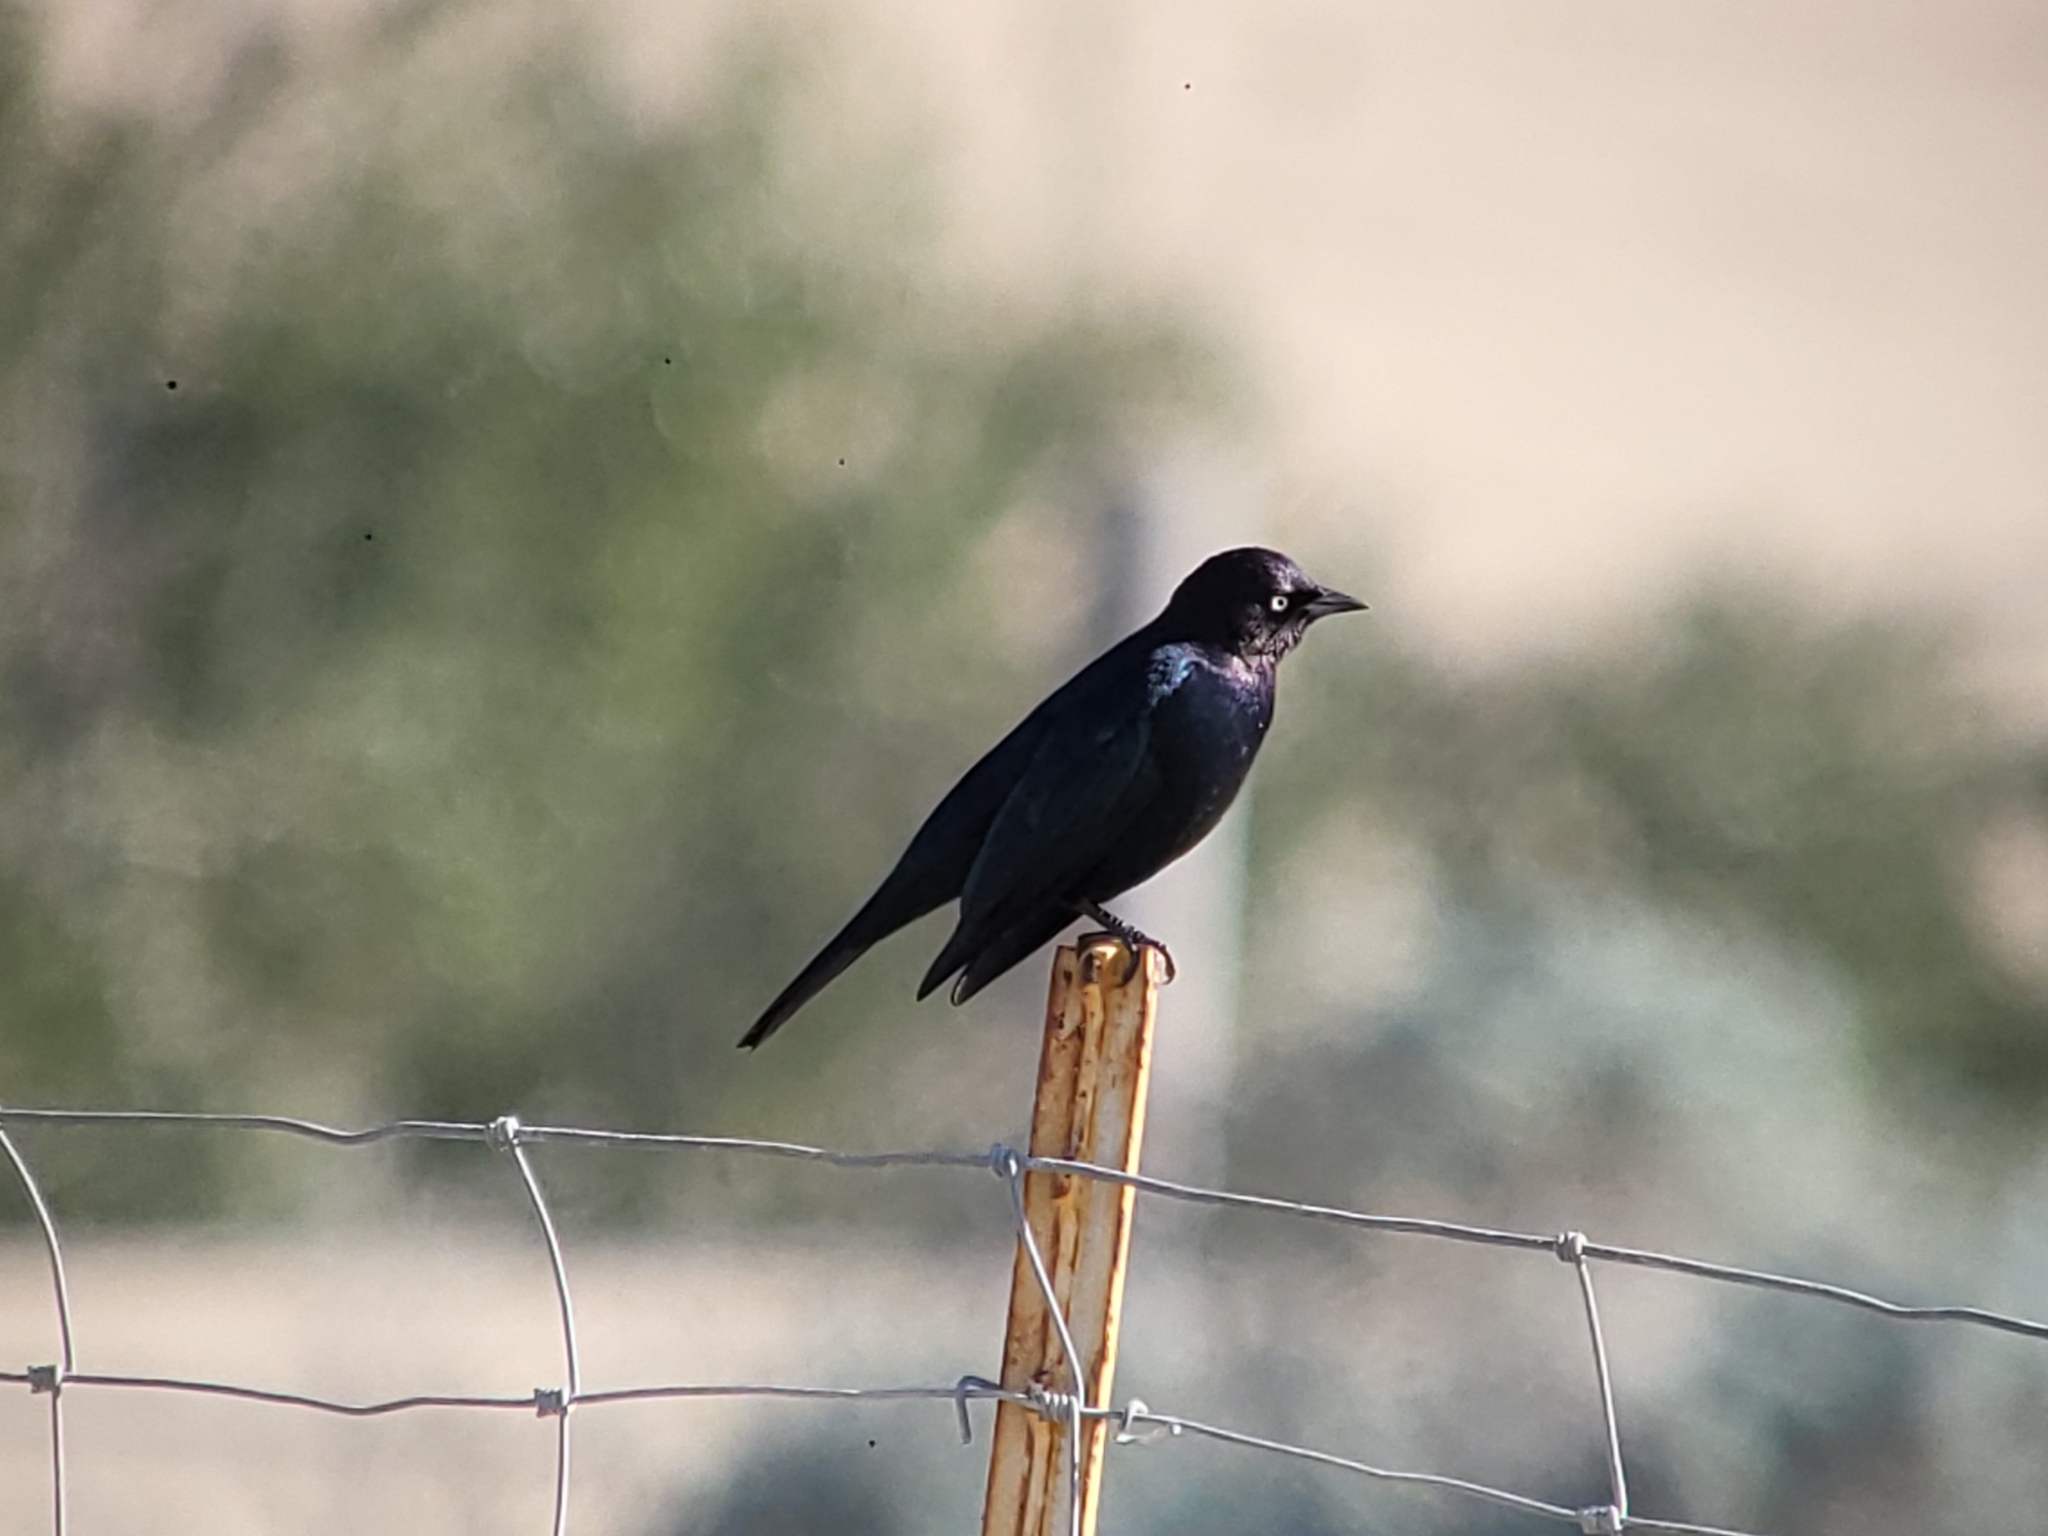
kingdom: Animalia
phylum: Chordata
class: Aves
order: Passeriformes
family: Icteridae
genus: Euphagus
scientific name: Euphagus cyanocephalus
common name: Brewer's blackbird
